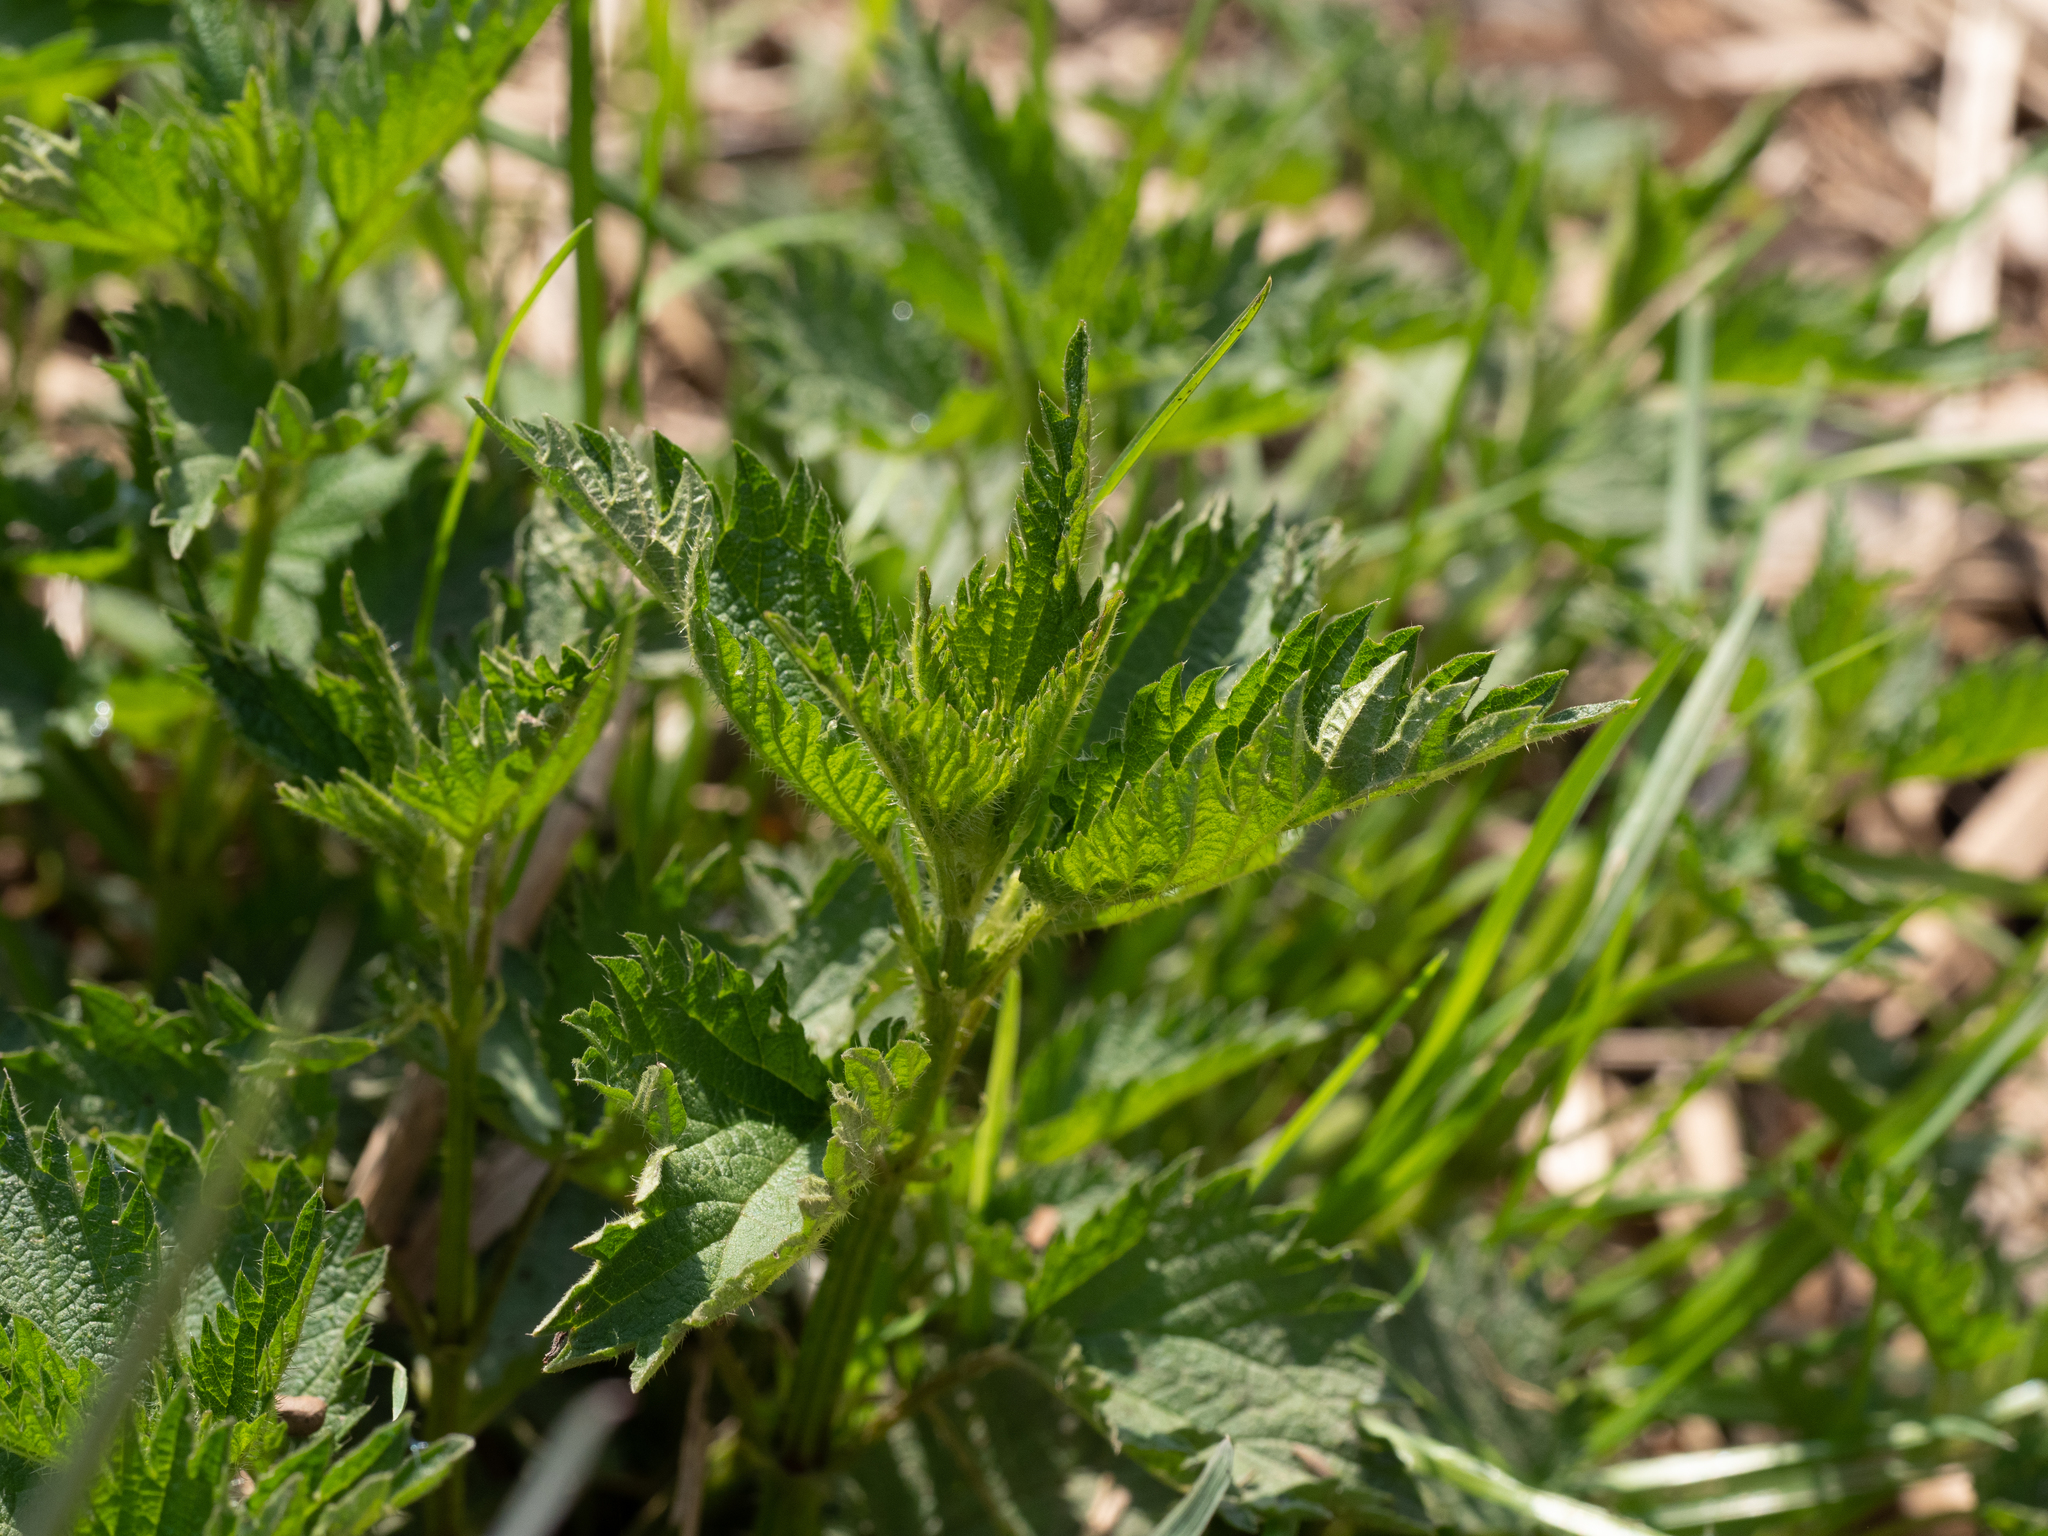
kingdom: Plantae
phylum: Tracheophyta
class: Magnoliopsida
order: Rosales
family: Urticaceae
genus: Urtica
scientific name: Urtica dioica
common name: Common nettle
